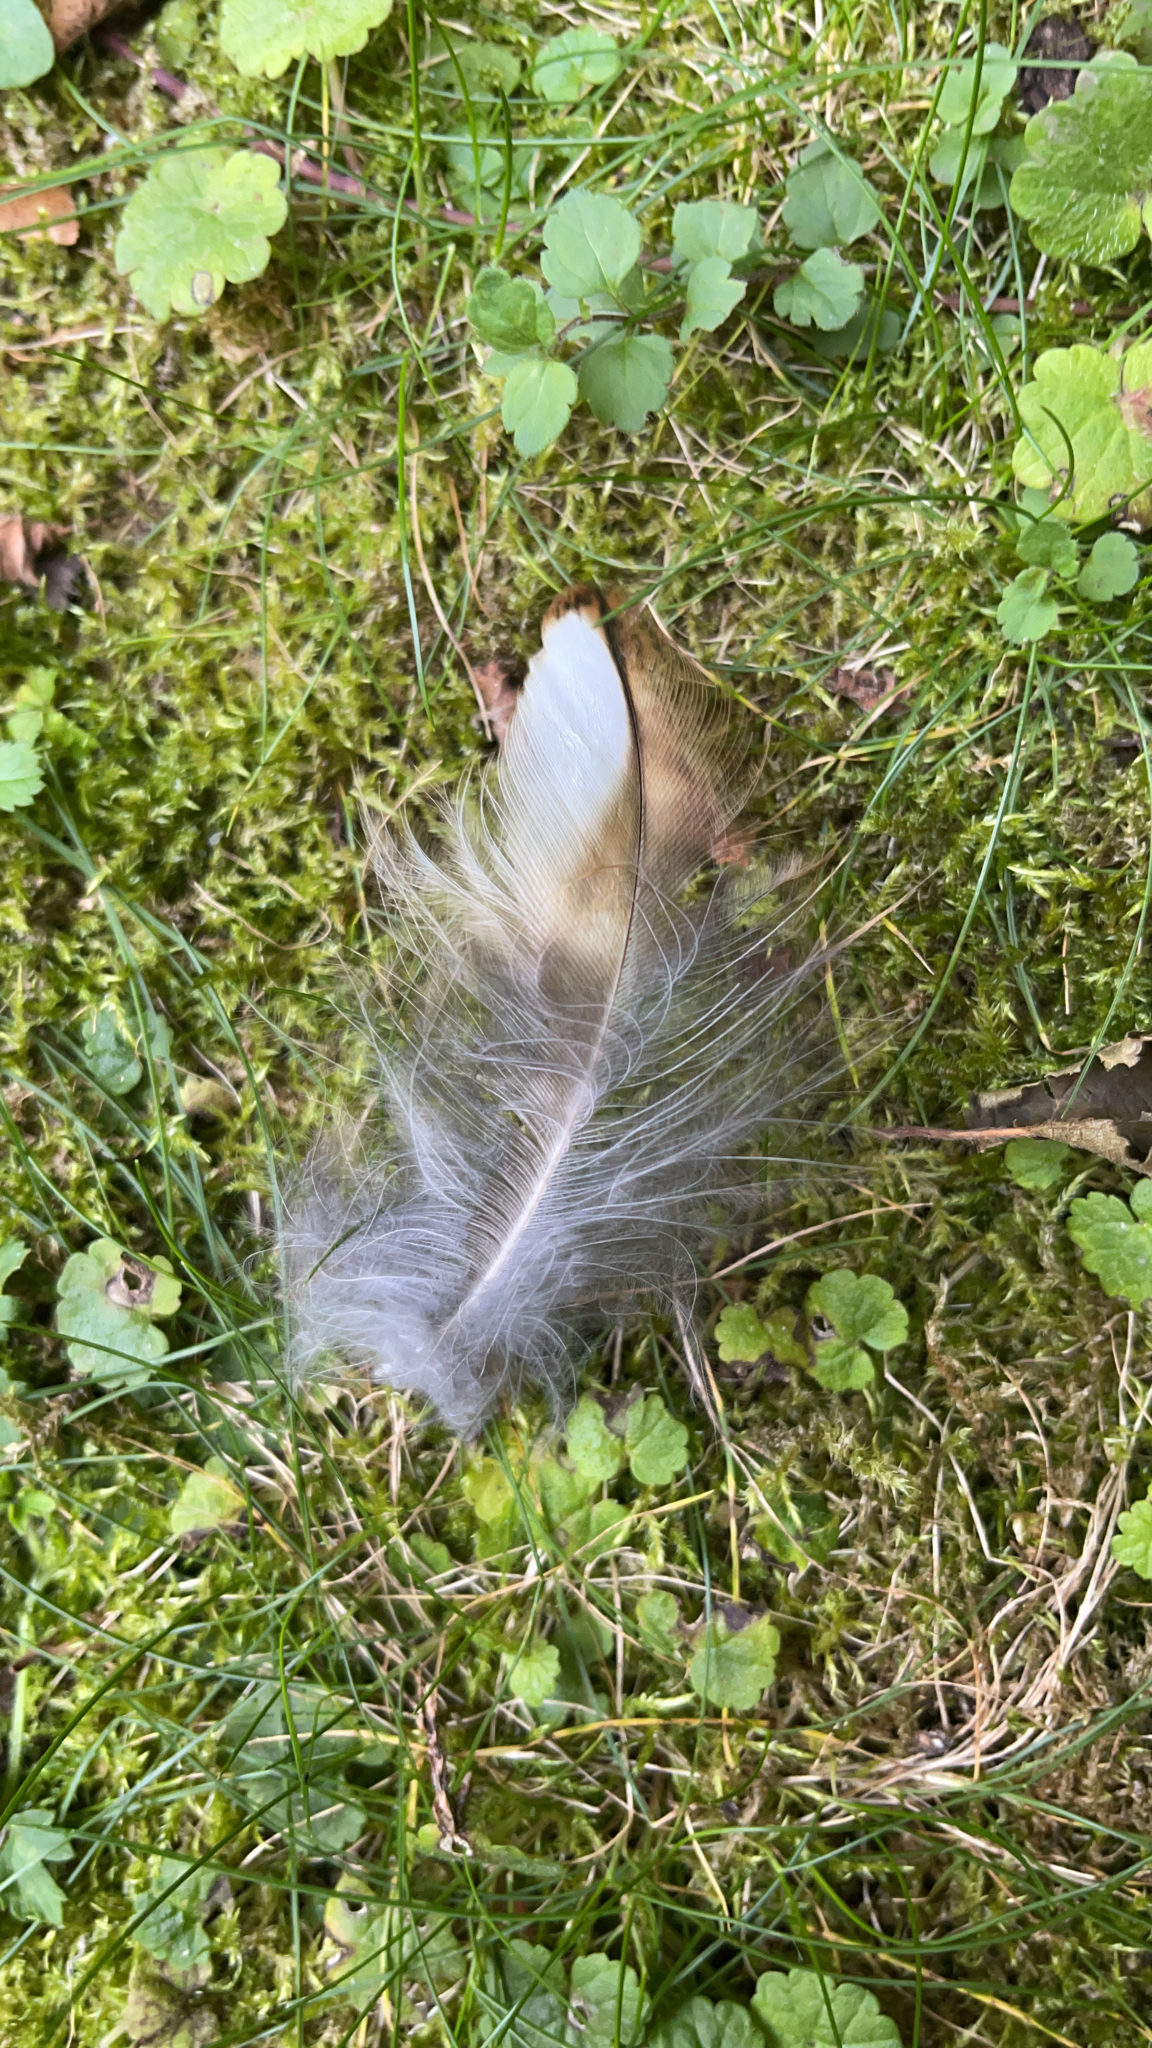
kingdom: Animalia
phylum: Chordata
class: Aves
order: Strigiformes
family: Strigidae
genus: Strix
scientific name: Strix aluco
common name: Tawny owl
